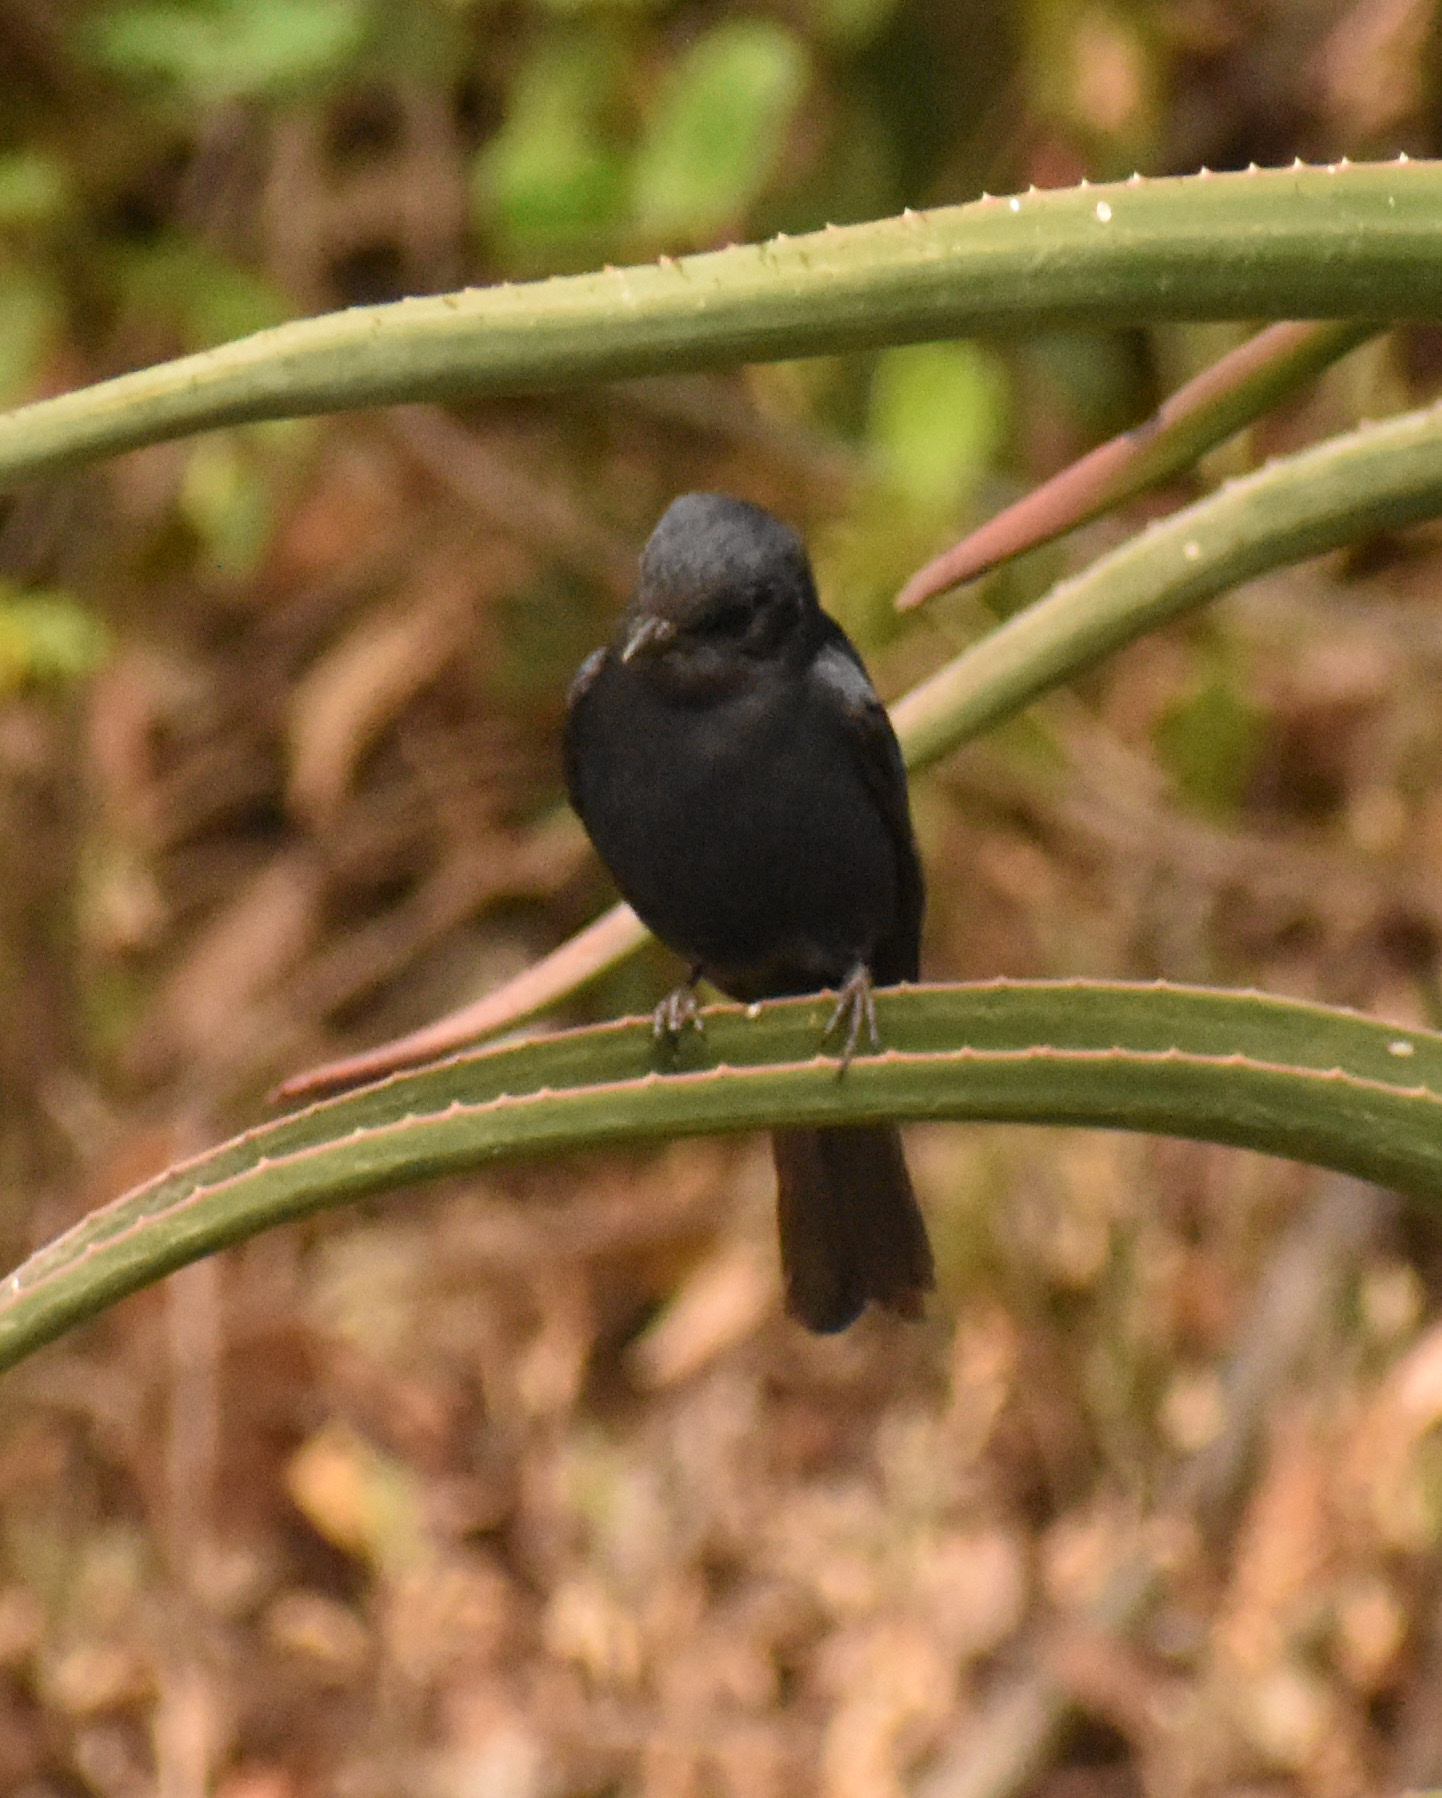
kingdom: Animalia
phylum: Chordata
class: Aves
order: Passeriformes
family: Muscicapidae
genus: Melaenornis
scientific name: Melaenornis pammelaina
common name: Southern black flycatcher
